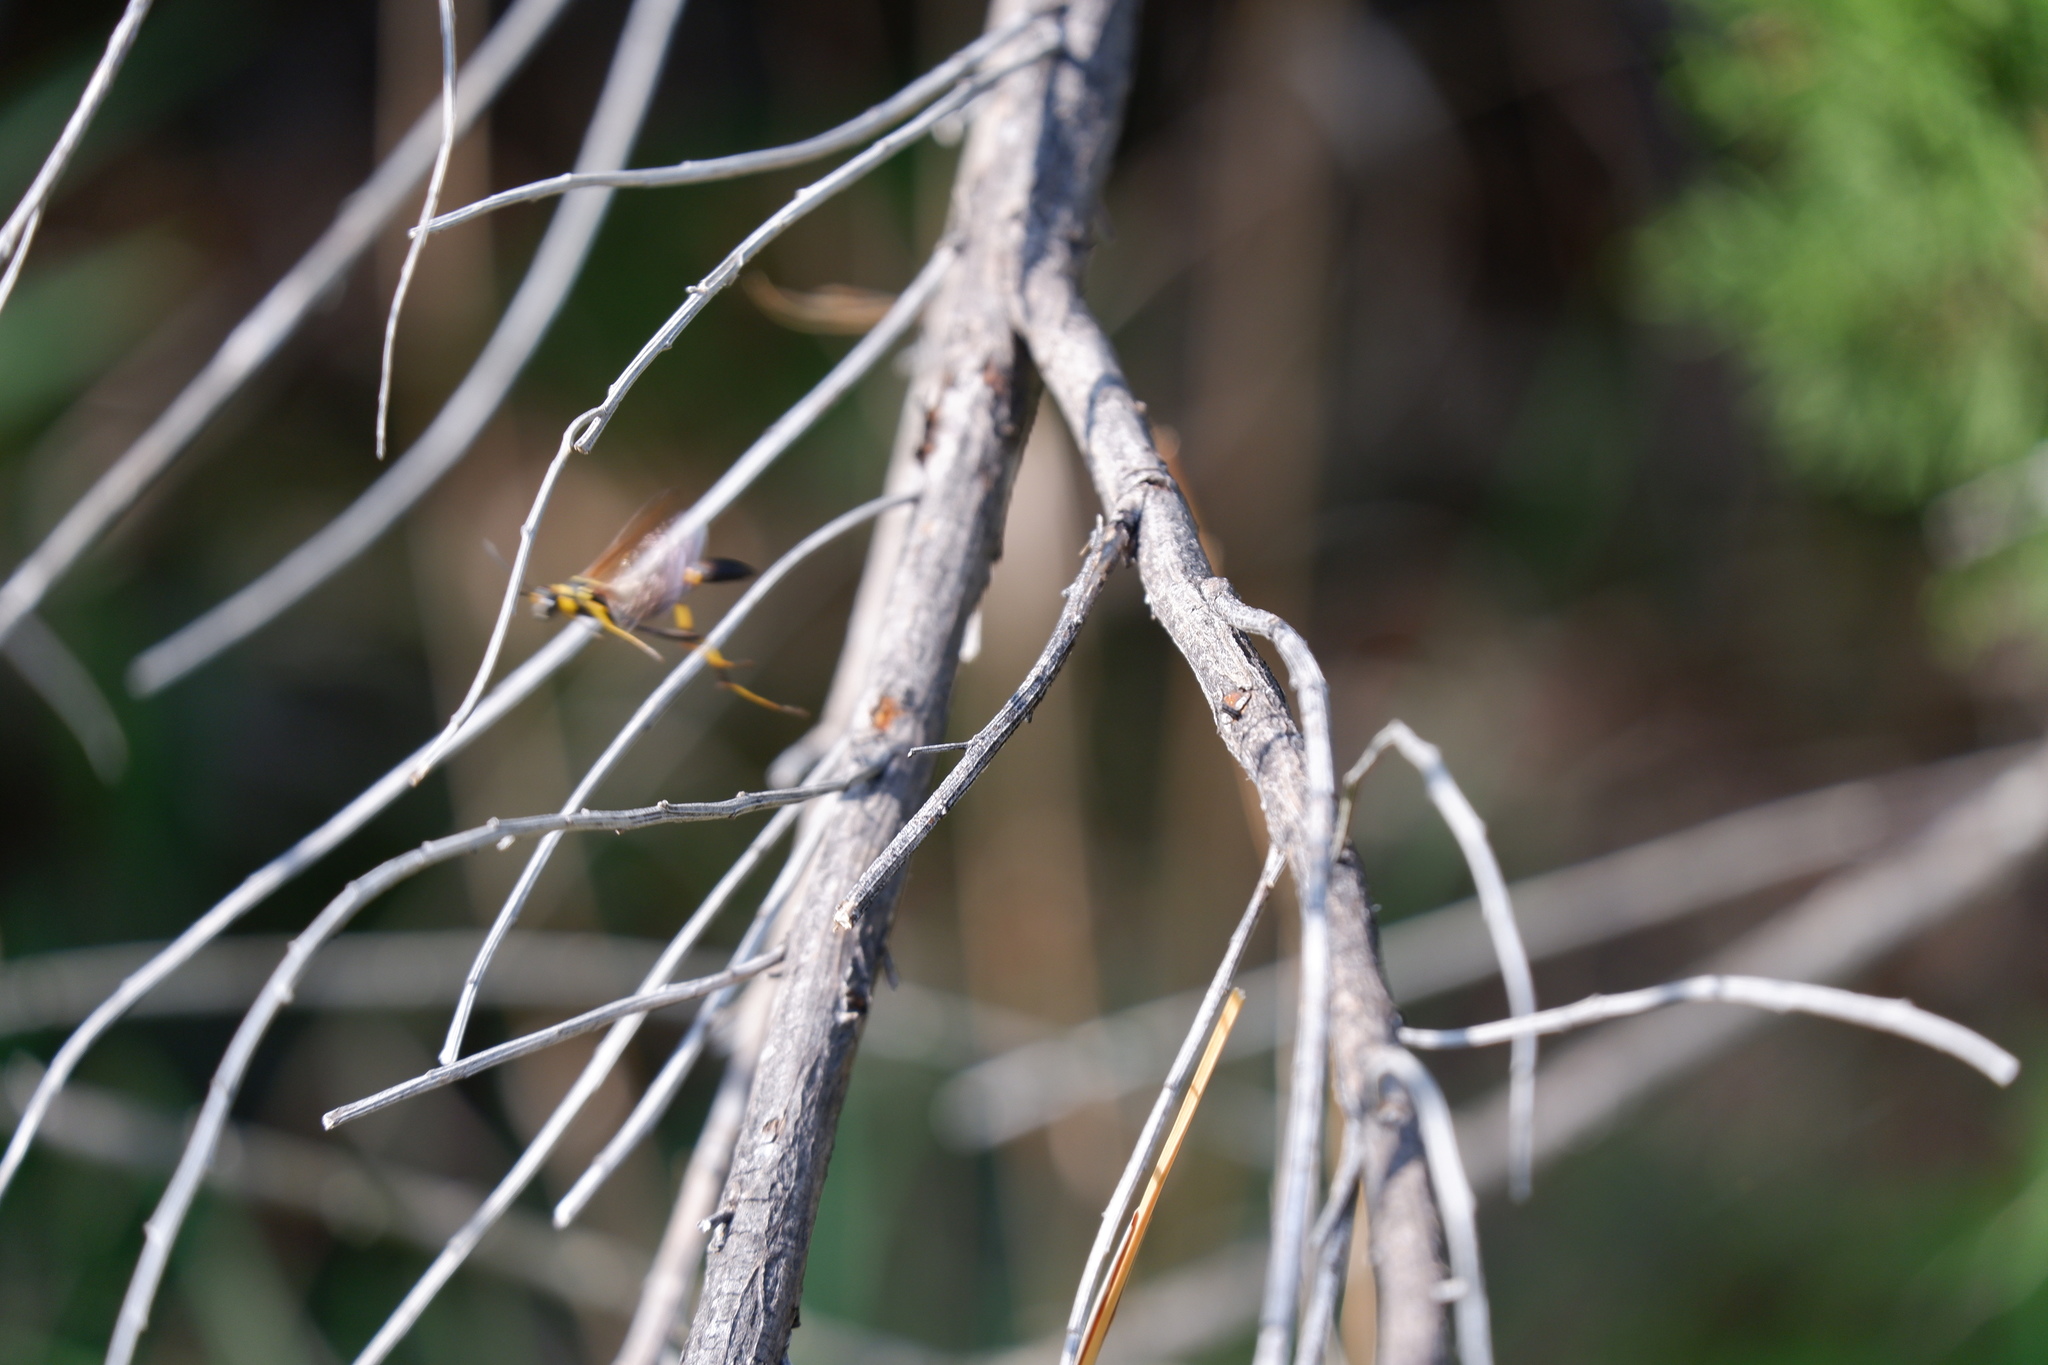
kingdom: Animalia
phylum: Arthropoda
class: Insecta
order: Hymenoptera
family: Sphecidae
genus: Sceliphron
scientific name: Sceliphron caementarium
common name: Mud dauber
